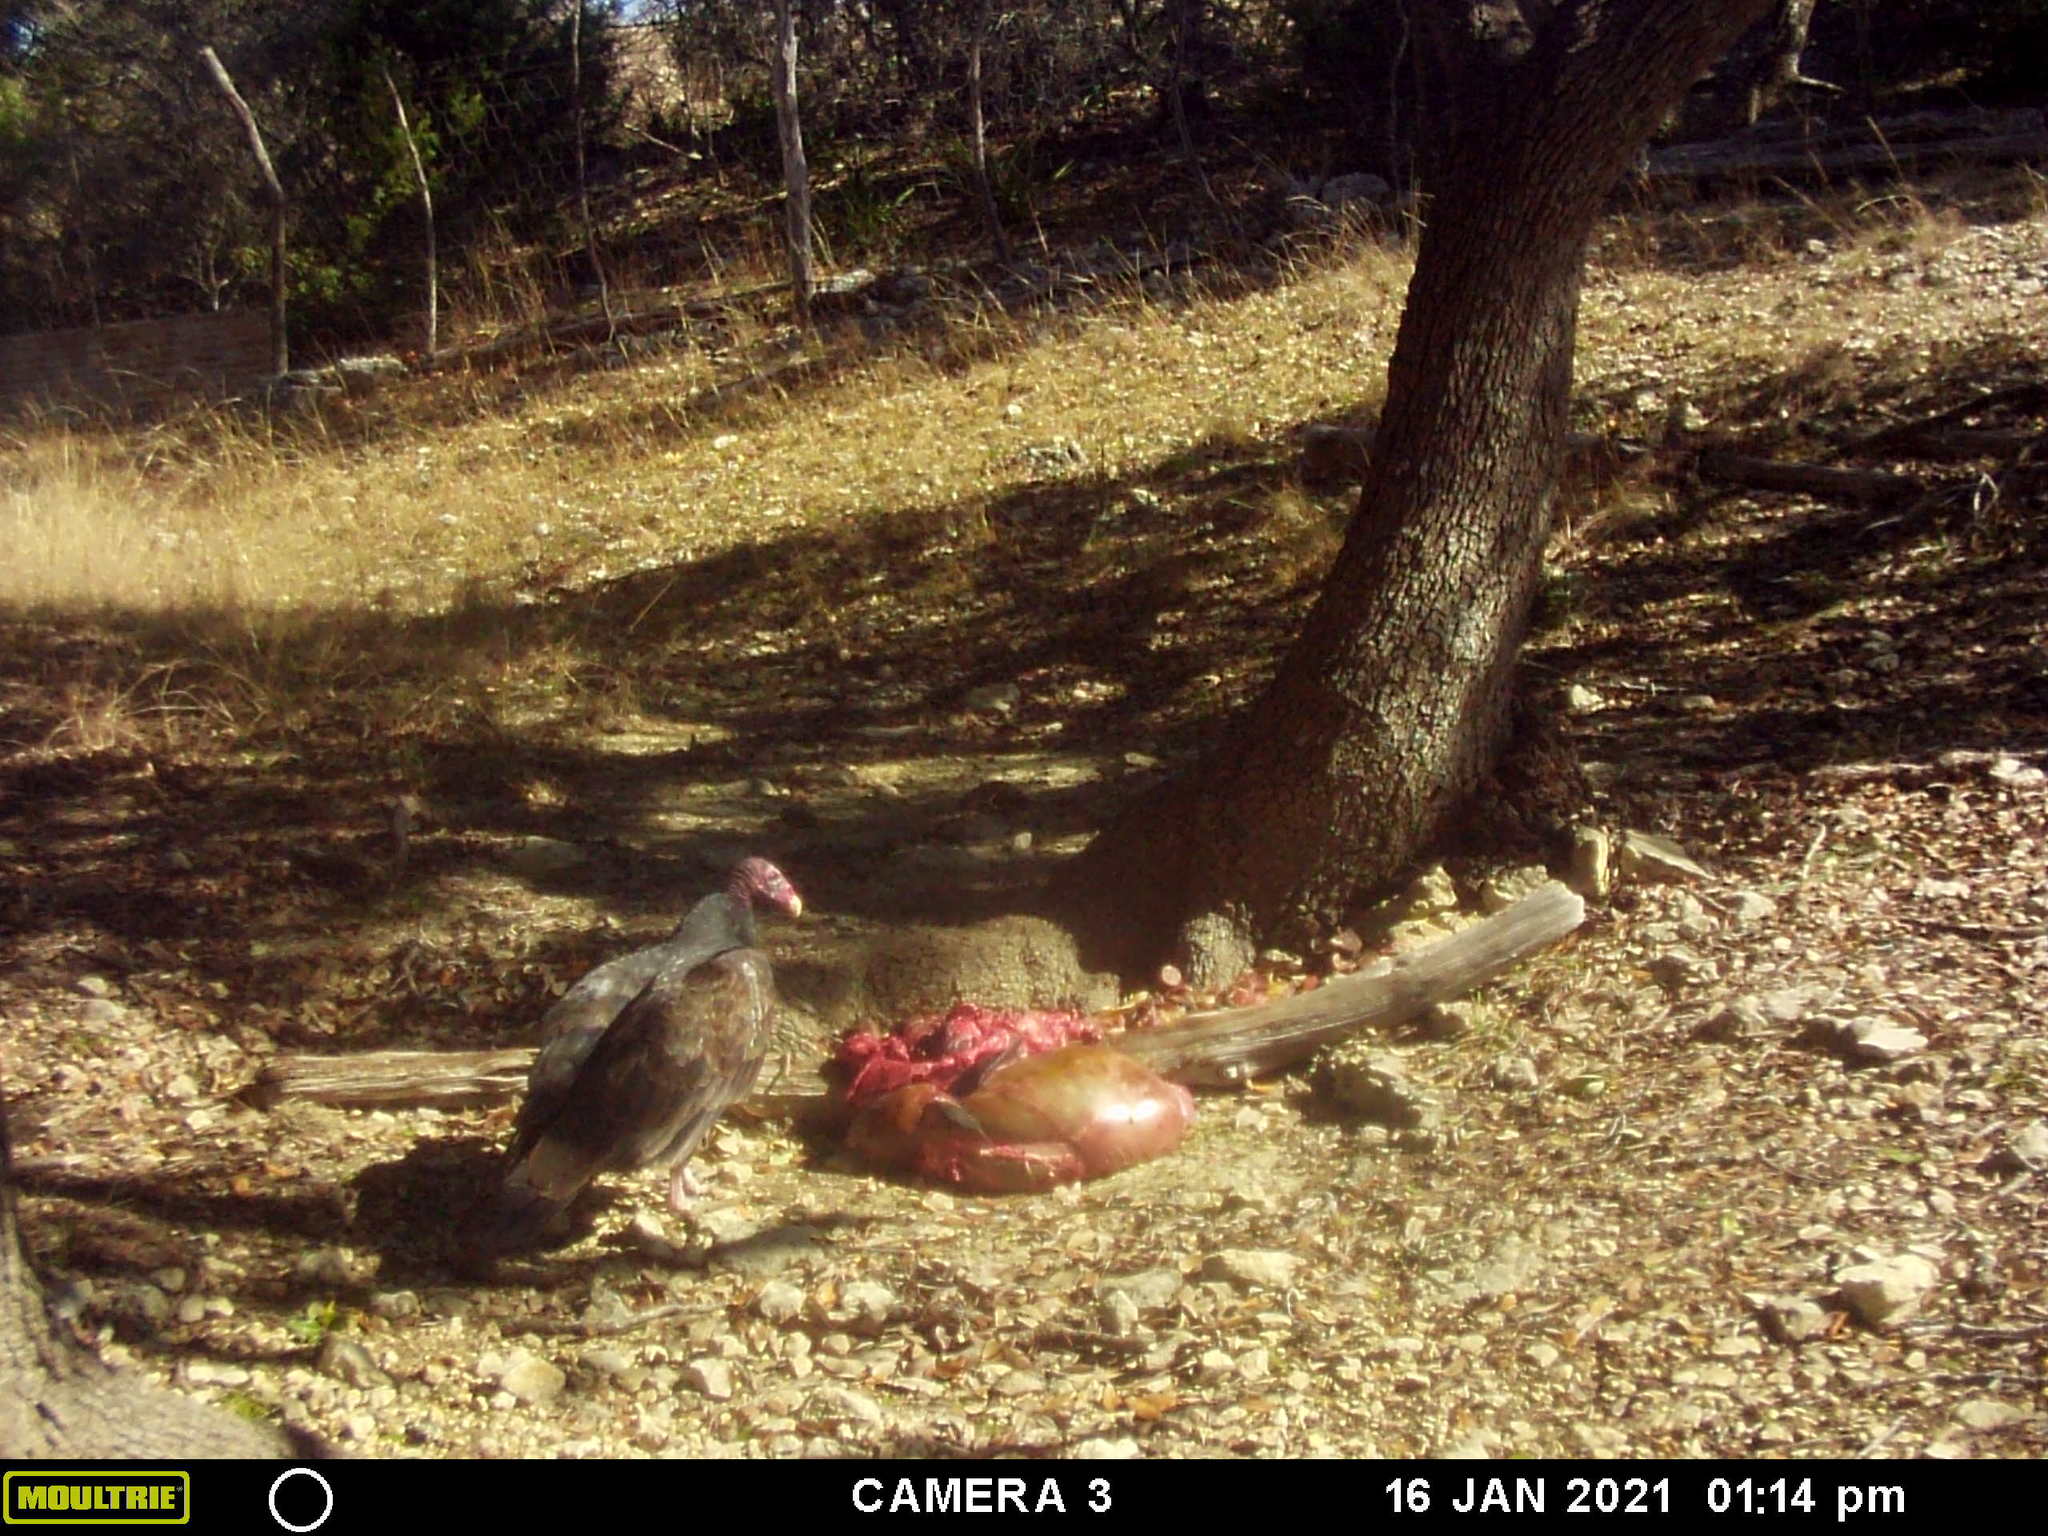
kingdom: Animalia
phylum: Chordata
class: Aves
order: Accipitriformes
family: Cathartidae
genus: Cathartes
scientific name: Cathartes aura
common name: Turkey vulture
